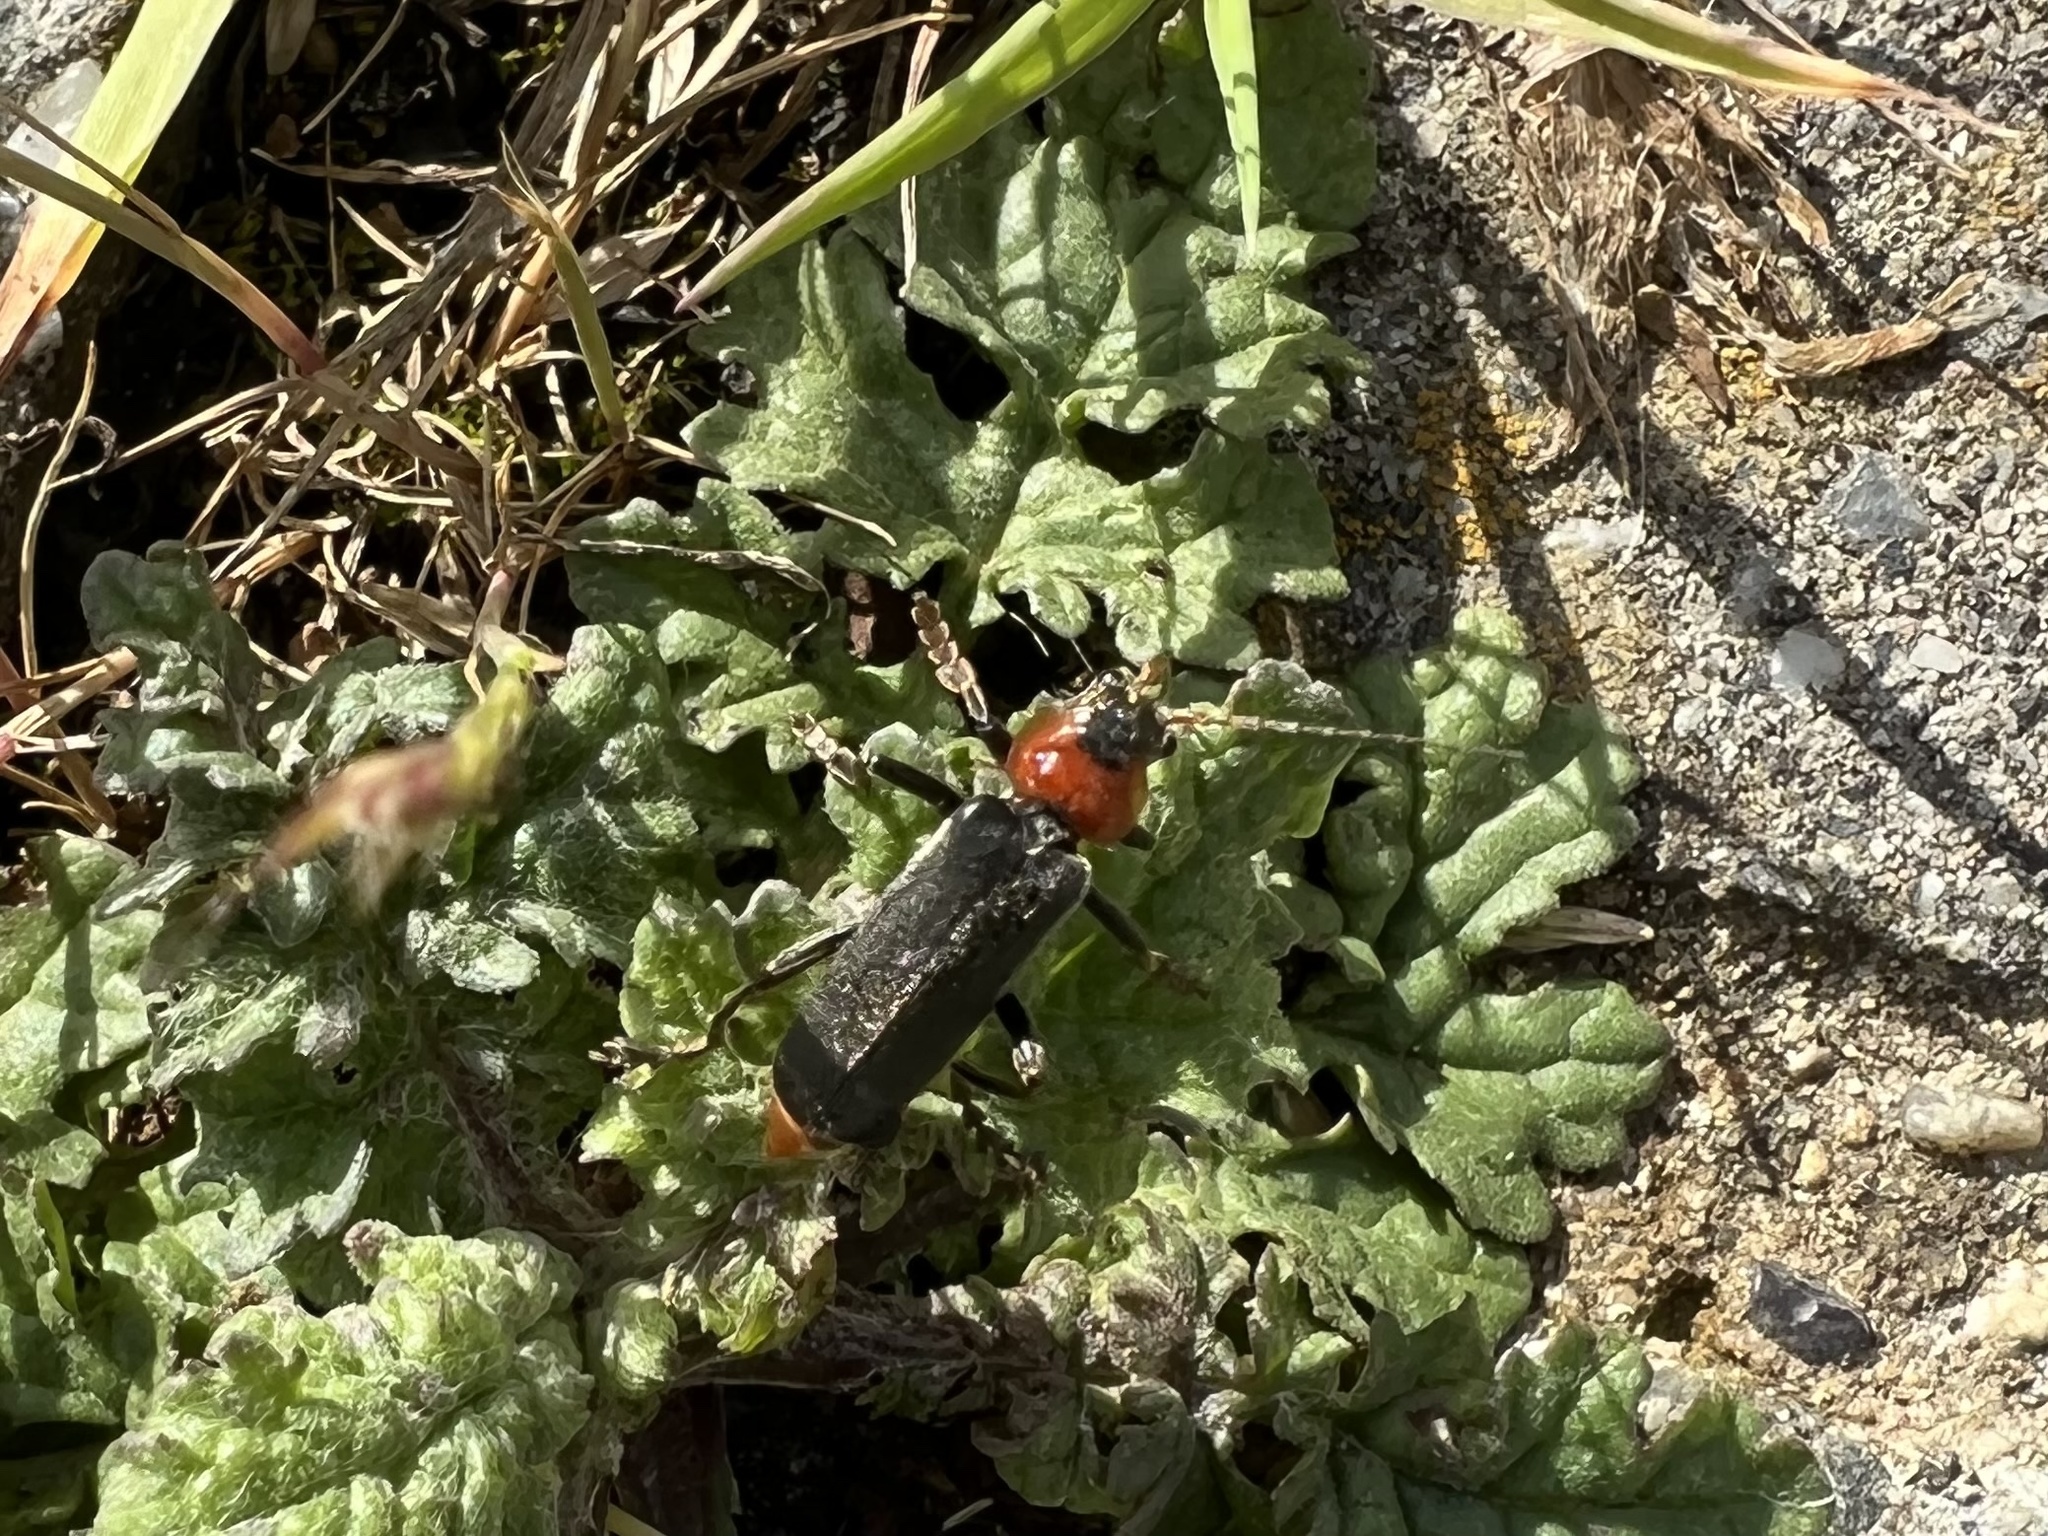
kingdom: Animalia
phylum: Arthropoda
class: Insecta
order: Coleoptera
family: Cantharidae
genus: Cantharis
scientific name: Cantharis fusca
